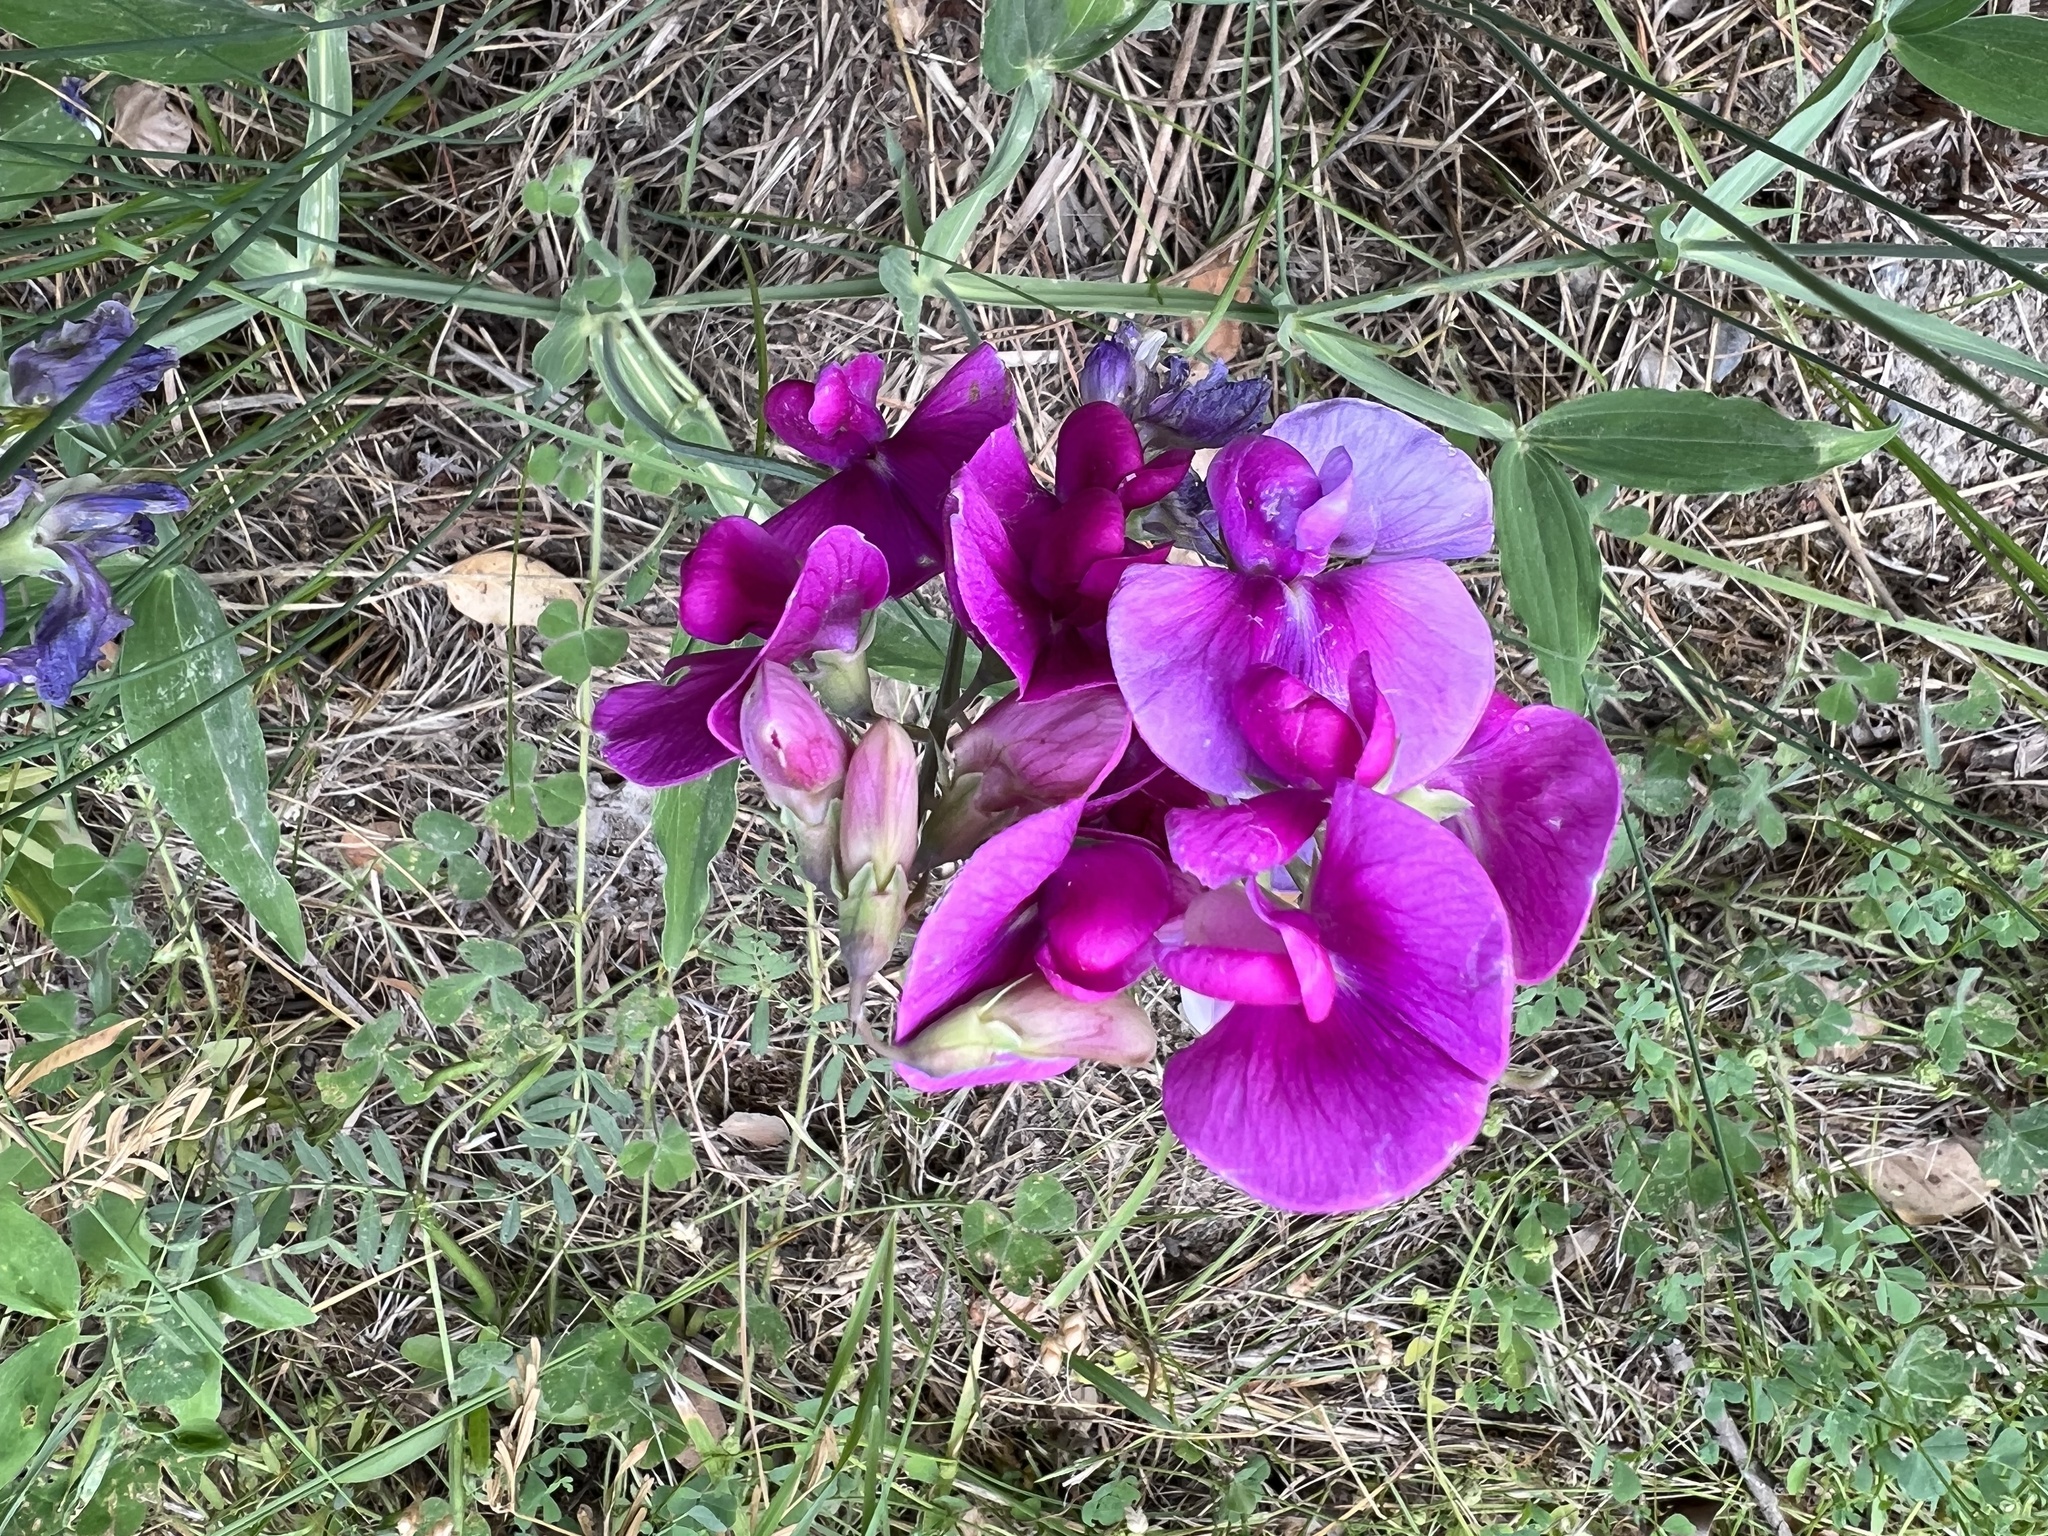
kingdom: Plantae
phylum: Tracheophyta
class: Magnoliopsida
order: Fabales
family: Fabaceae
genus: Lathyrus
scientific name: Lathyrus latifolius
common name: Perennial pea
